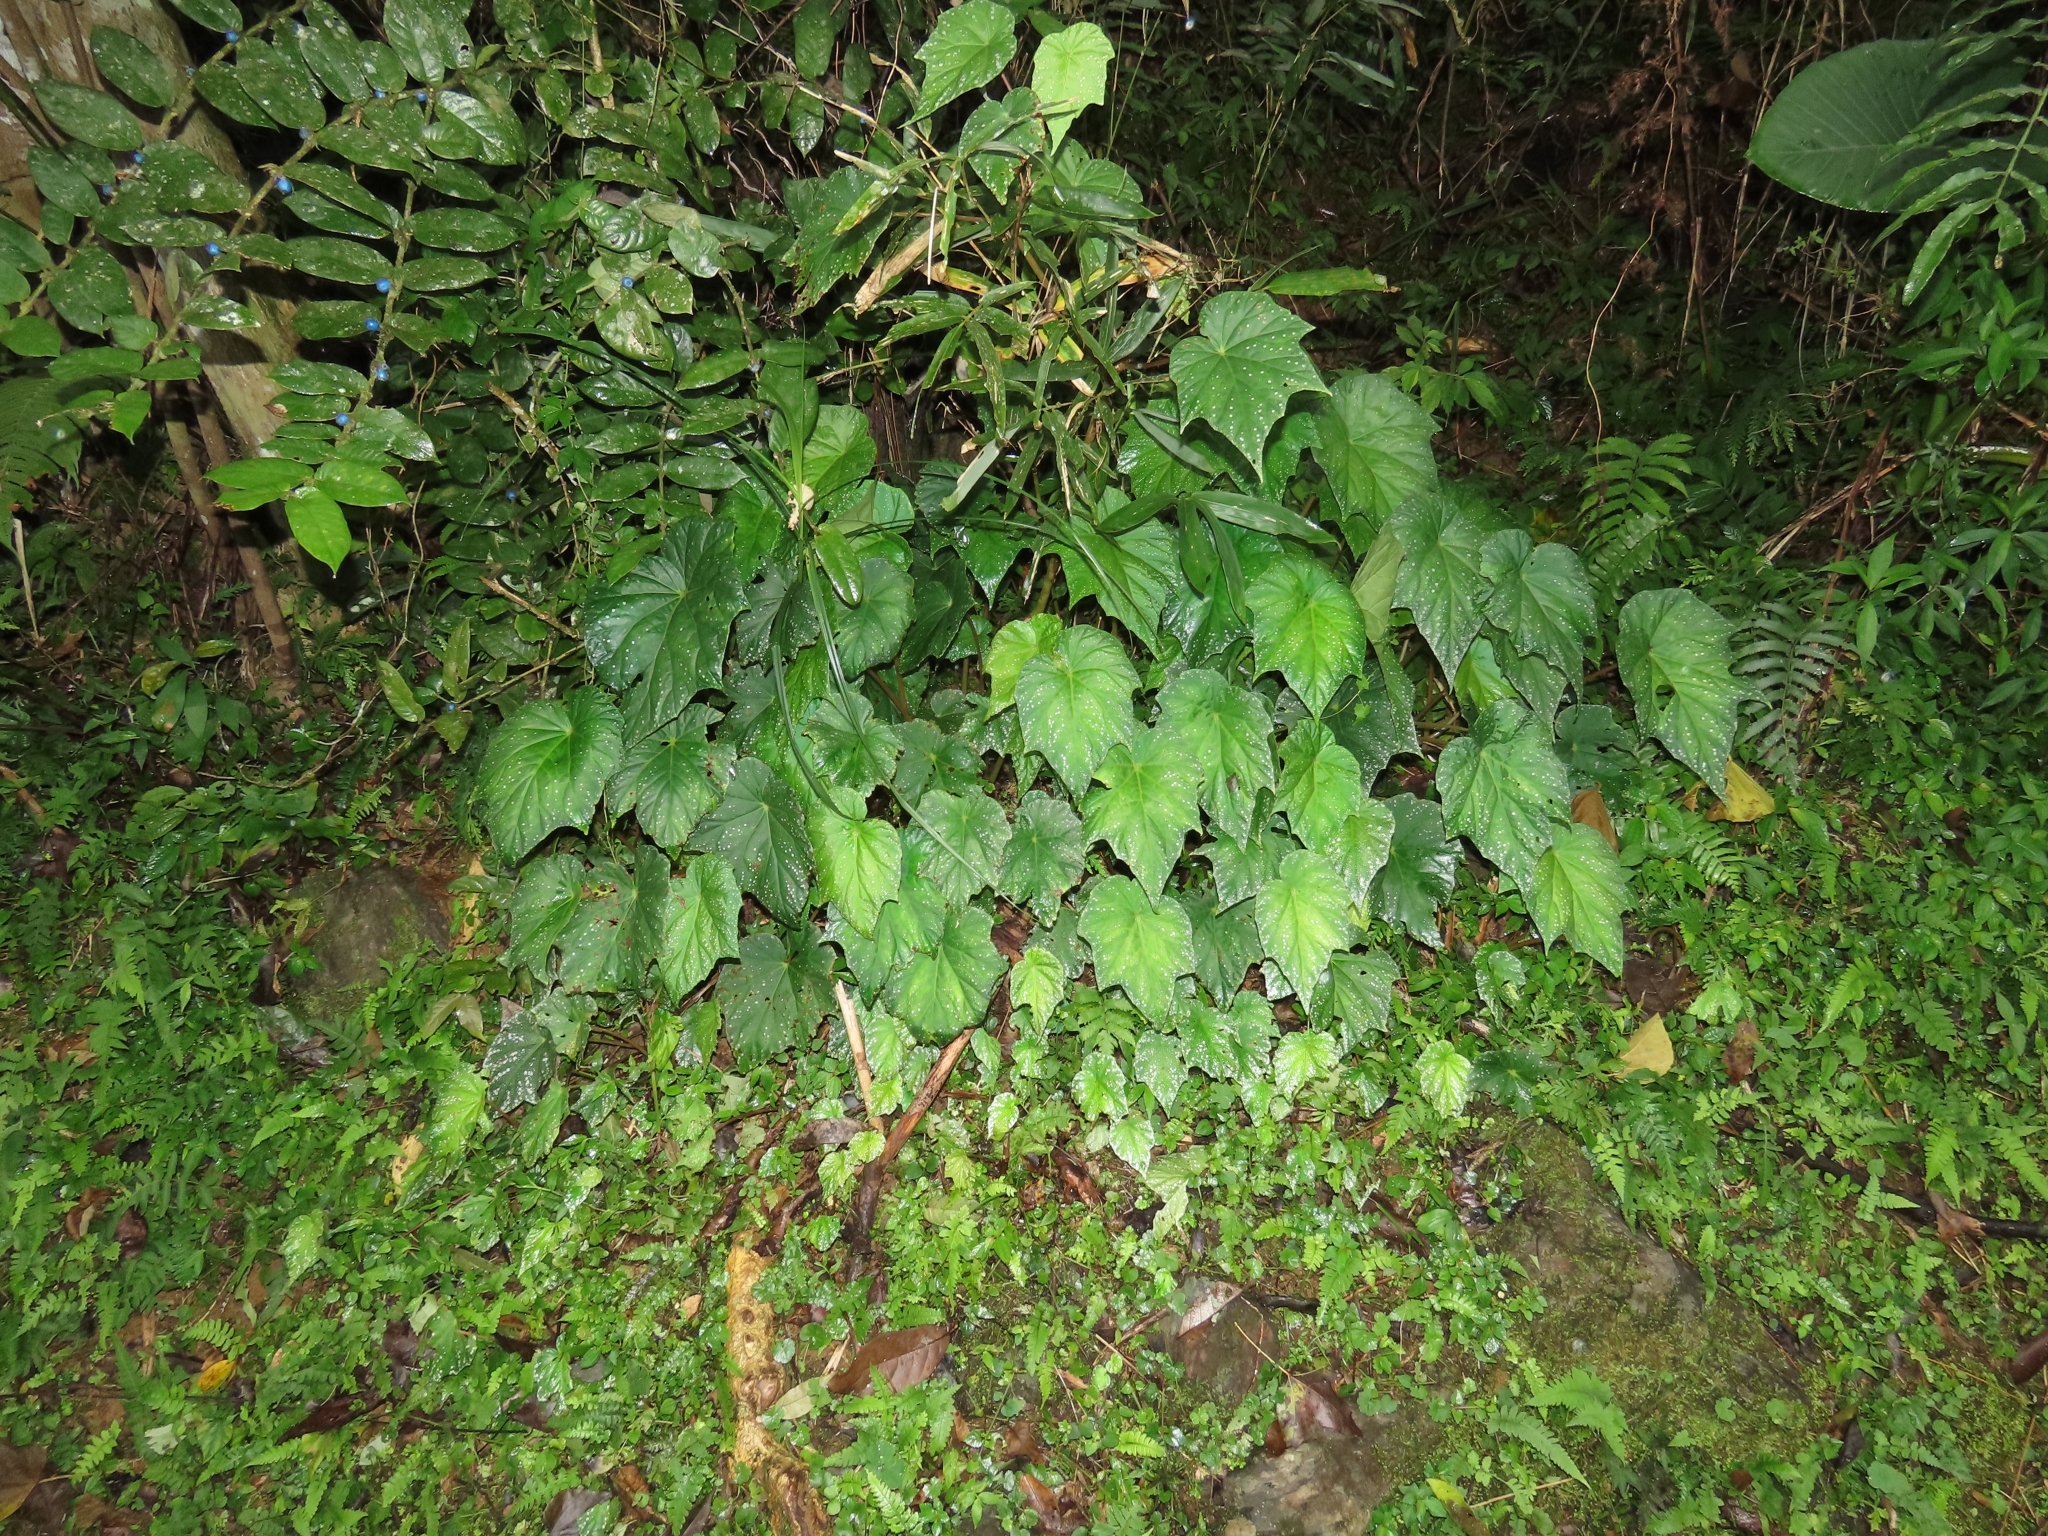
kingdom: Plantae
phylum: Tracheophyta
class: Magnoliopsida
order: Cucurbitales
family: Begoniaceae
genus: Begonia
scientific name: Begonia formosana
